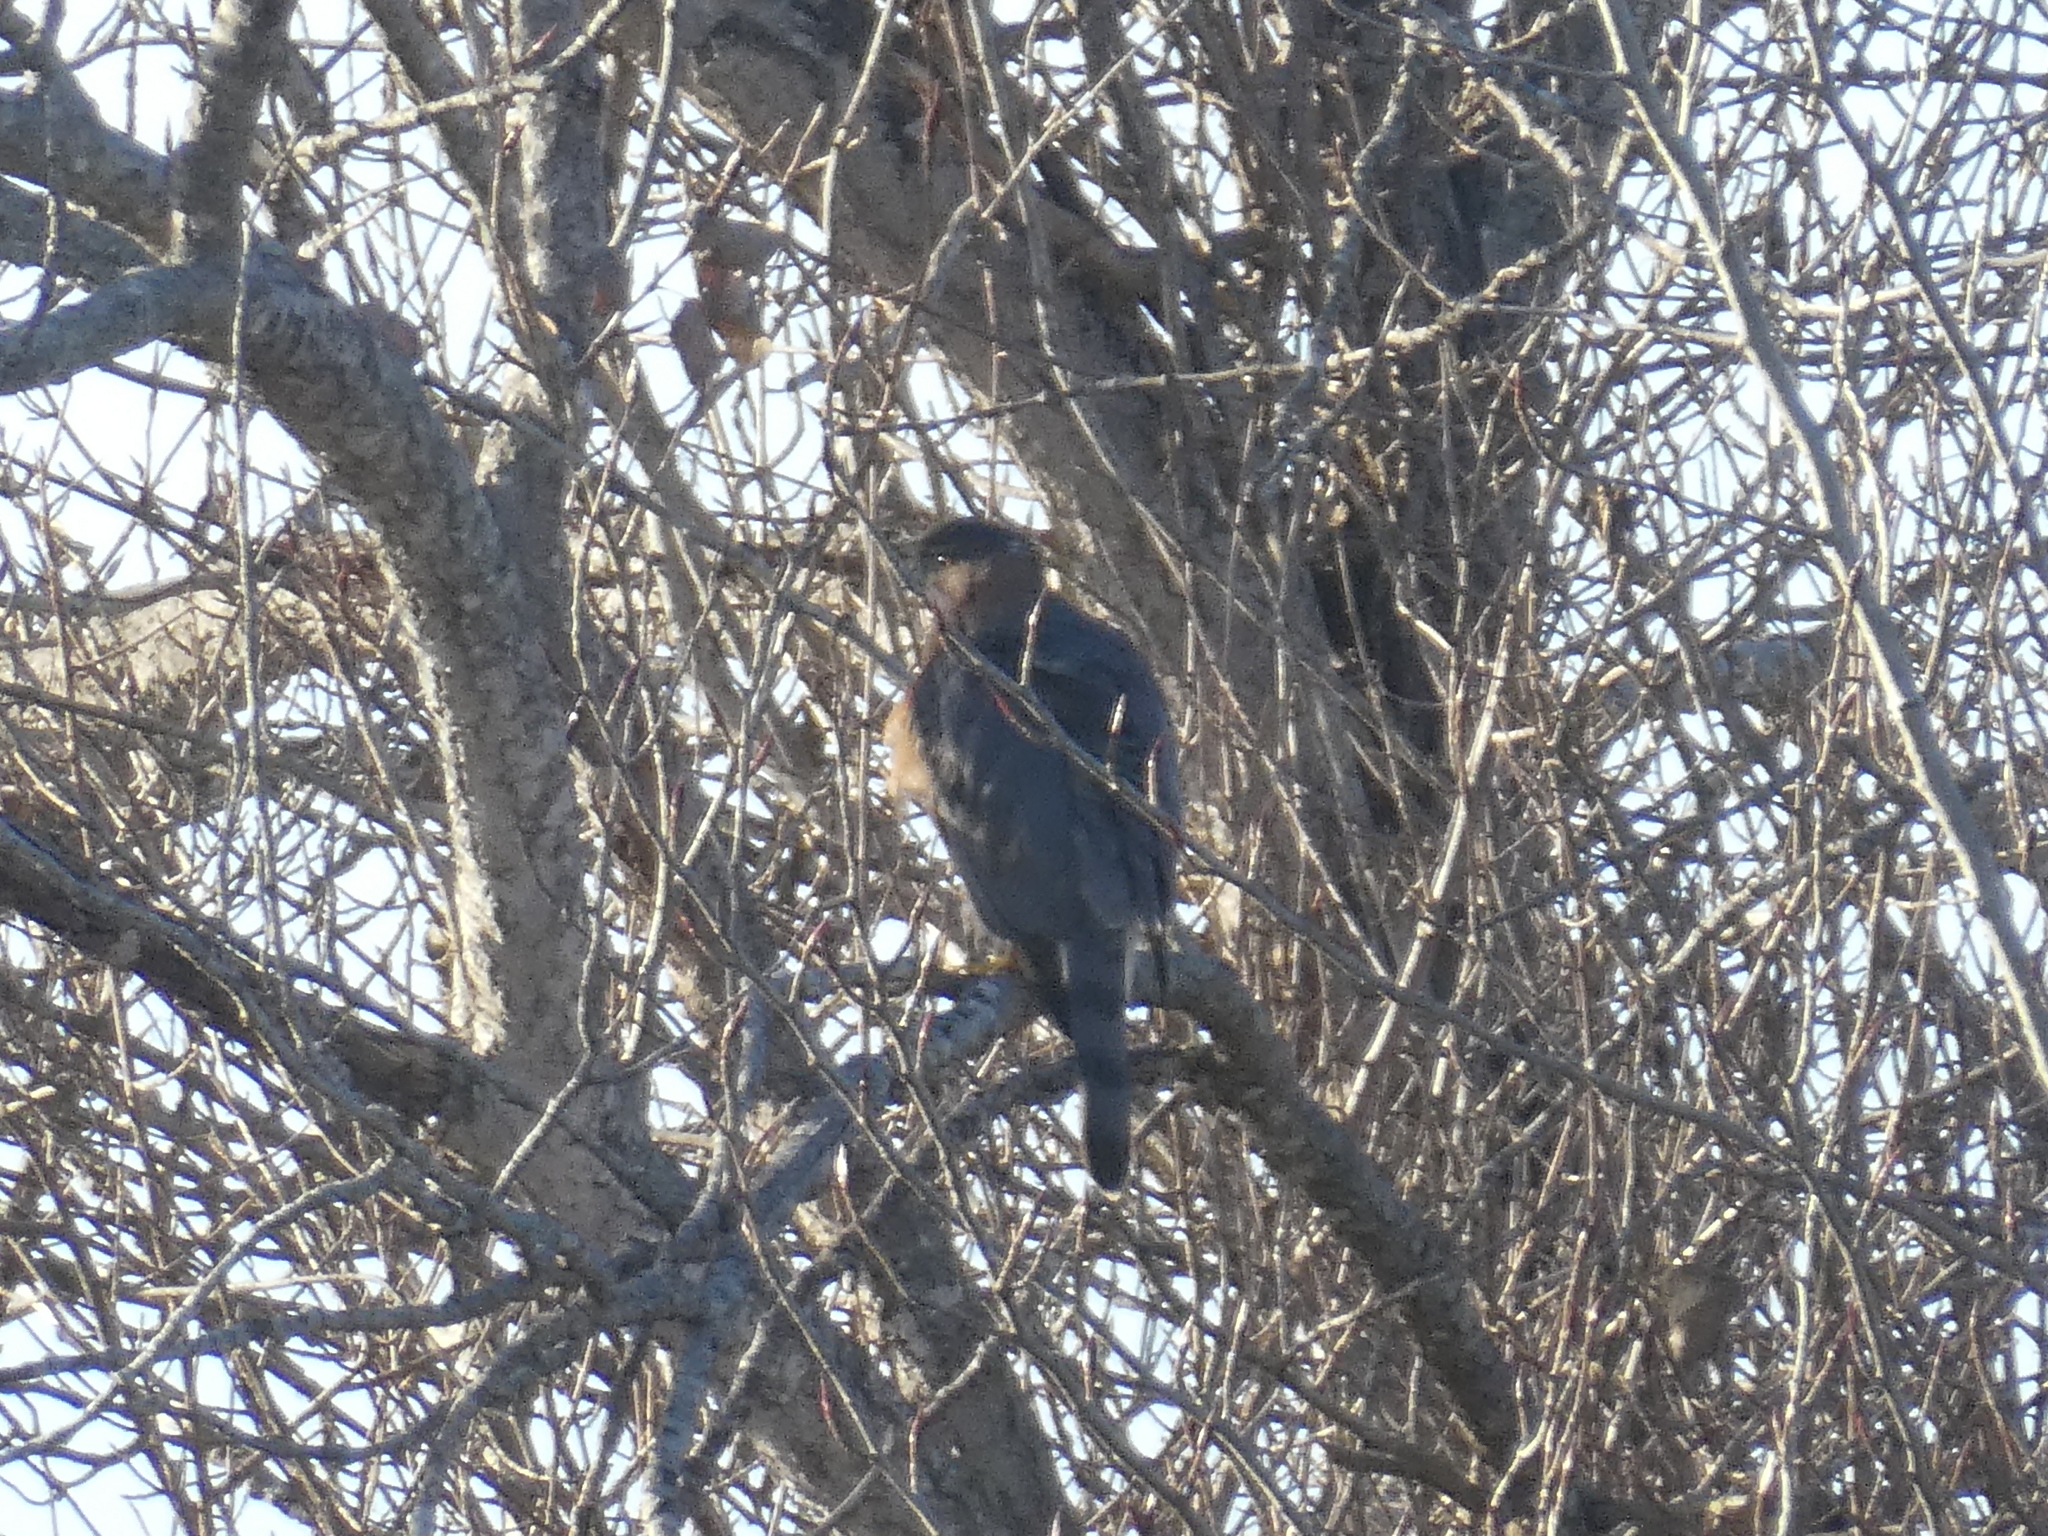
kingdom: Animalia
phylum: Chordata
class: Aves
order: Accipitriformes
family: Accipitridae
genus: Accipiter
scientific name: Accipiter cooperii
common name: Cooper's hawk
